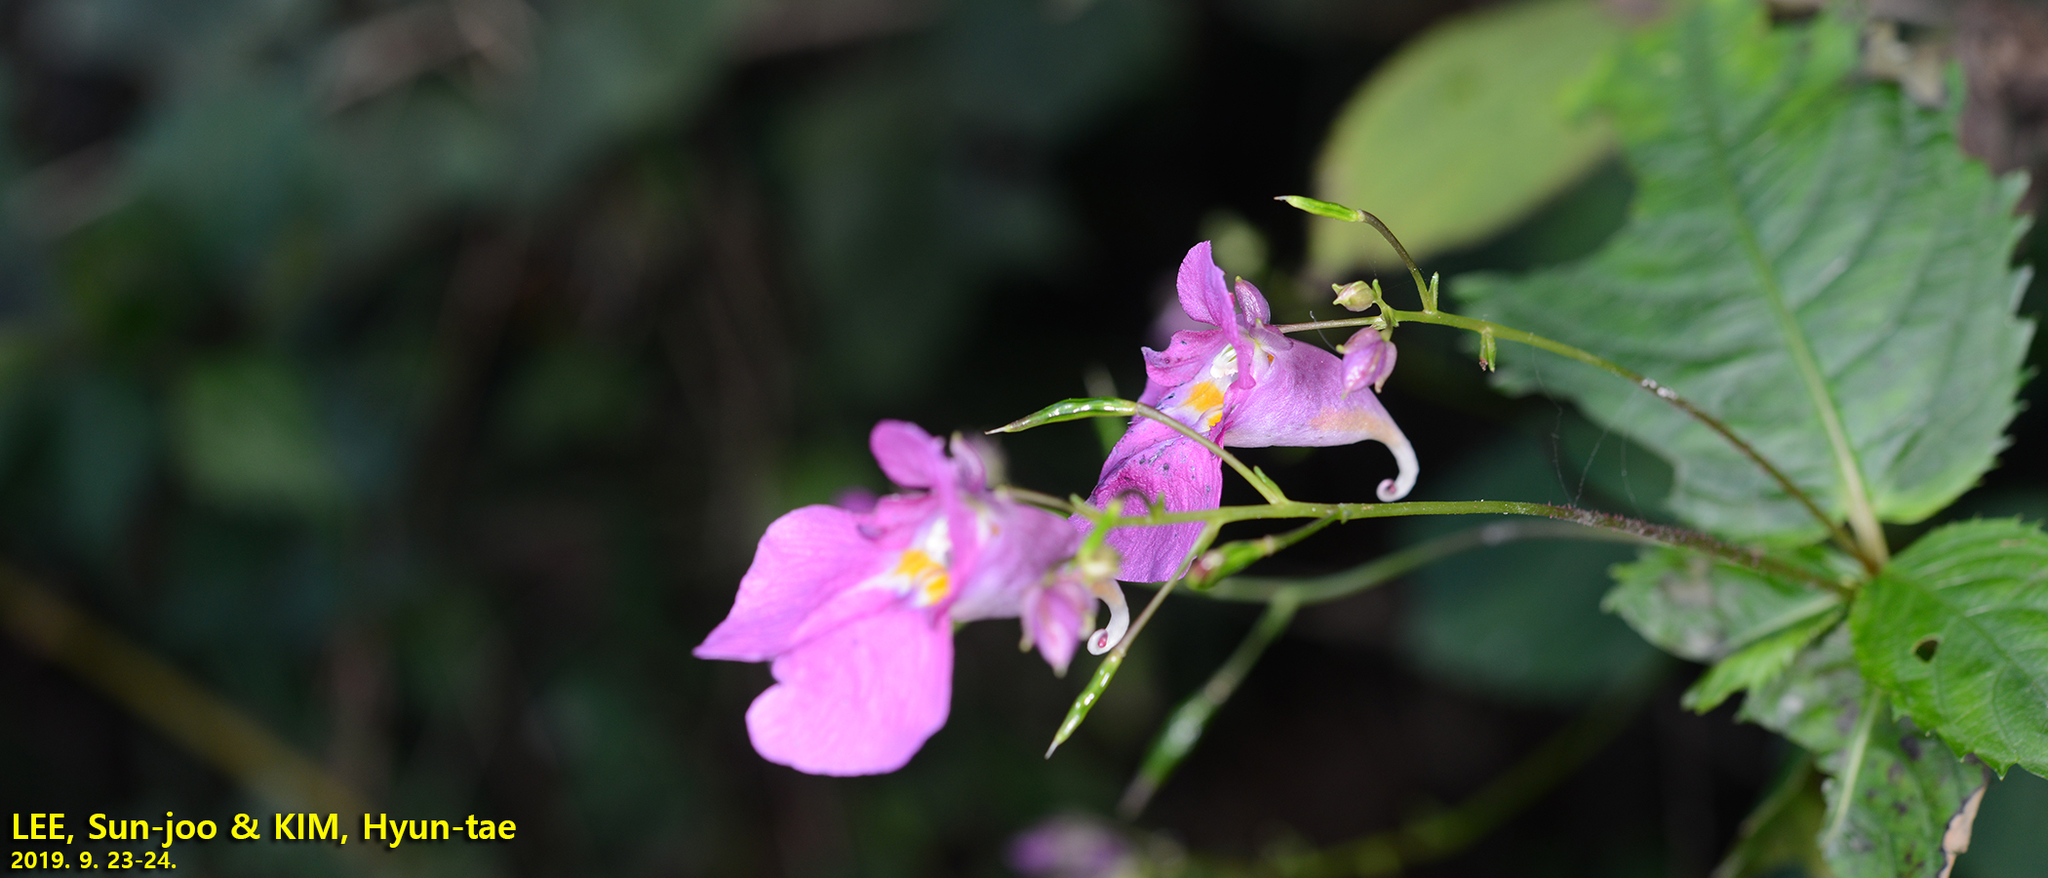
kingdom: Plantae
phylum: Tracheophyta
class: Magnoliopsida
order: Ericales
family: Balsaminaceae
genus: Impatiens
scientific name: Impatiens textorii
